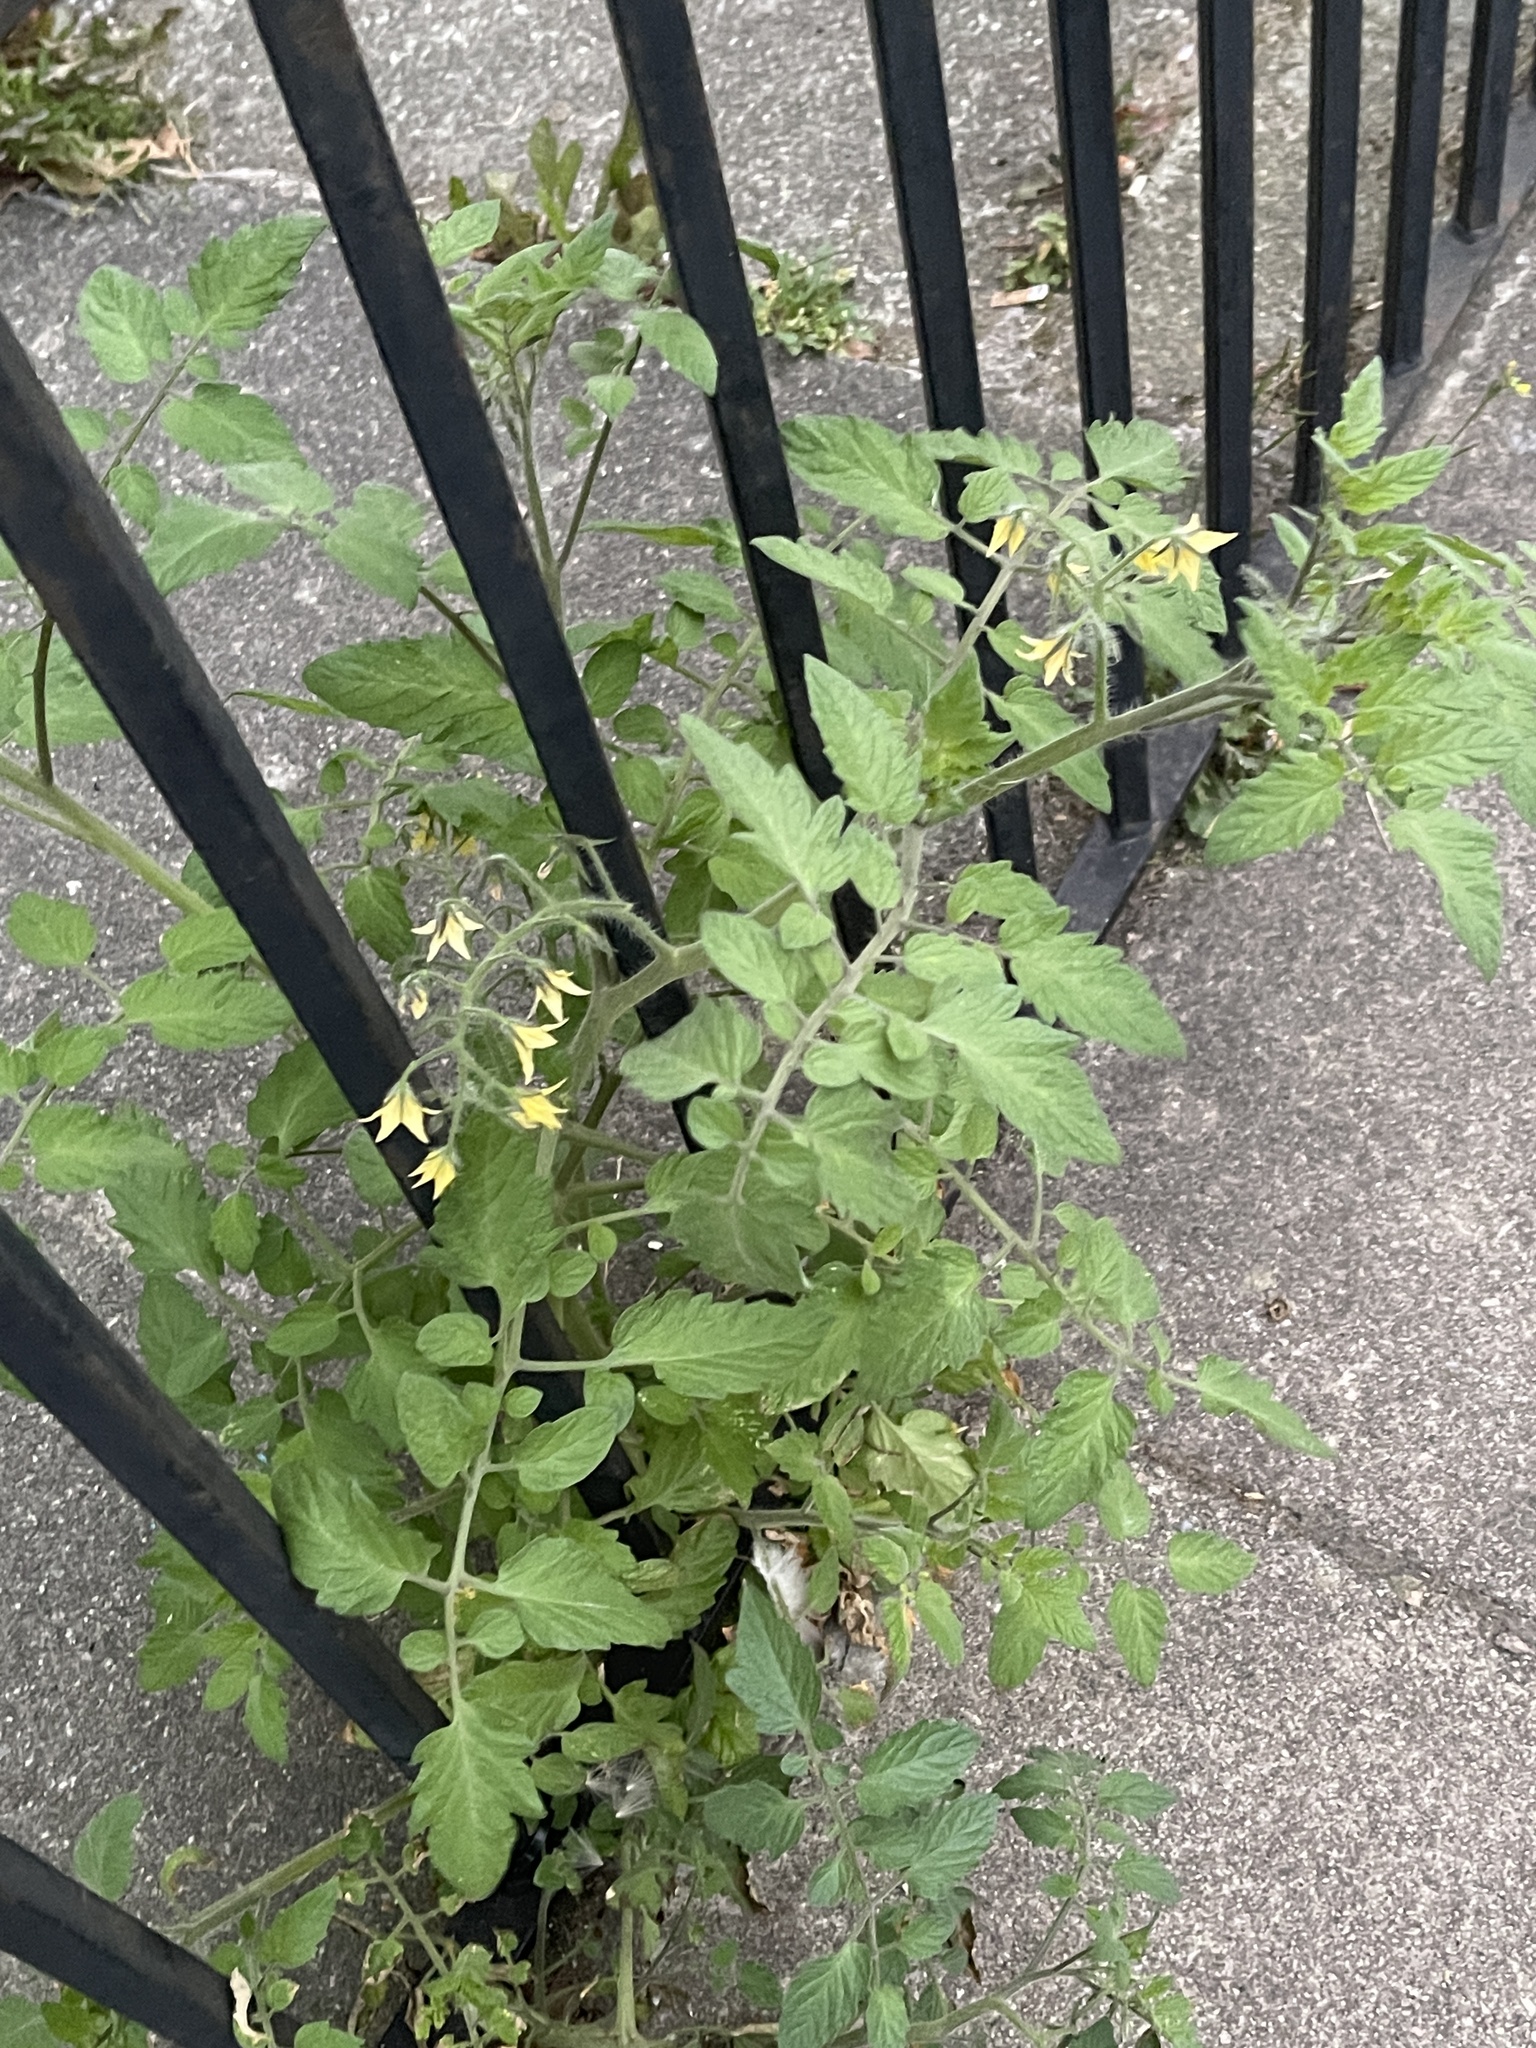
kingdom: Plantae
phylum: Tracheophyta
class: Magnoliopsida
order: Solanales
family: Solanaceae
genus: Solanum
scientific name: Solanum lycopersicum
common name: Garden tomato
